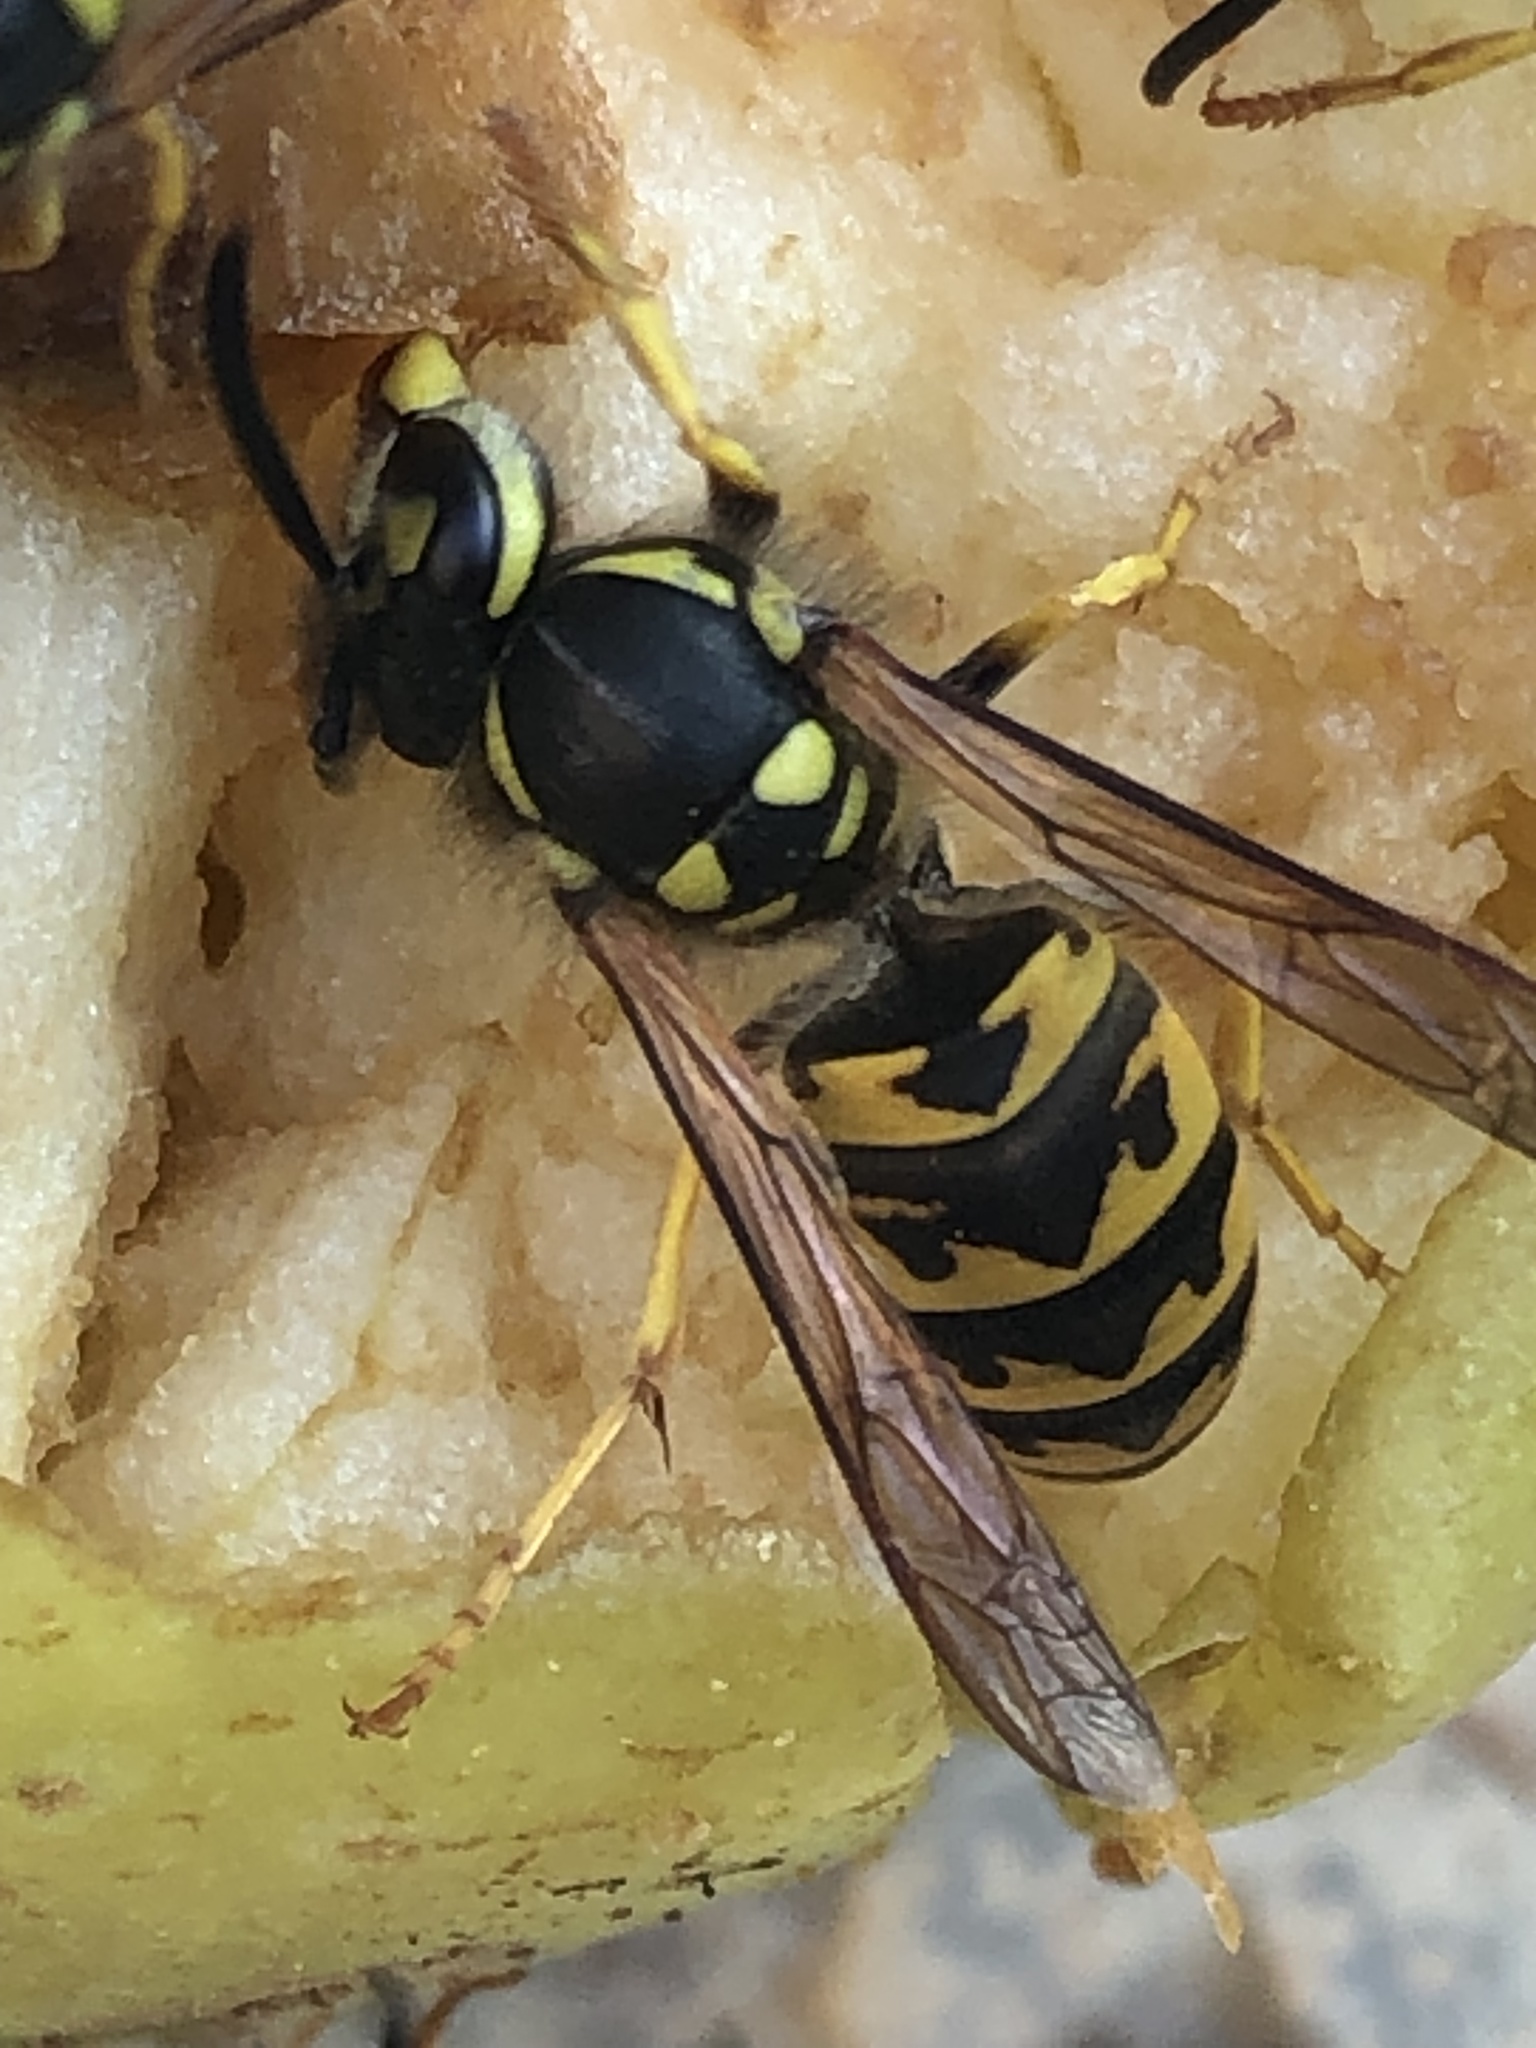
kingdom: Animalia
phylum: Arthropoda
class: Insecta
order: Hymenoptera
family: Vespidae
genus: Vespula
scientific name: Vespula germanica
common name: German wasp
